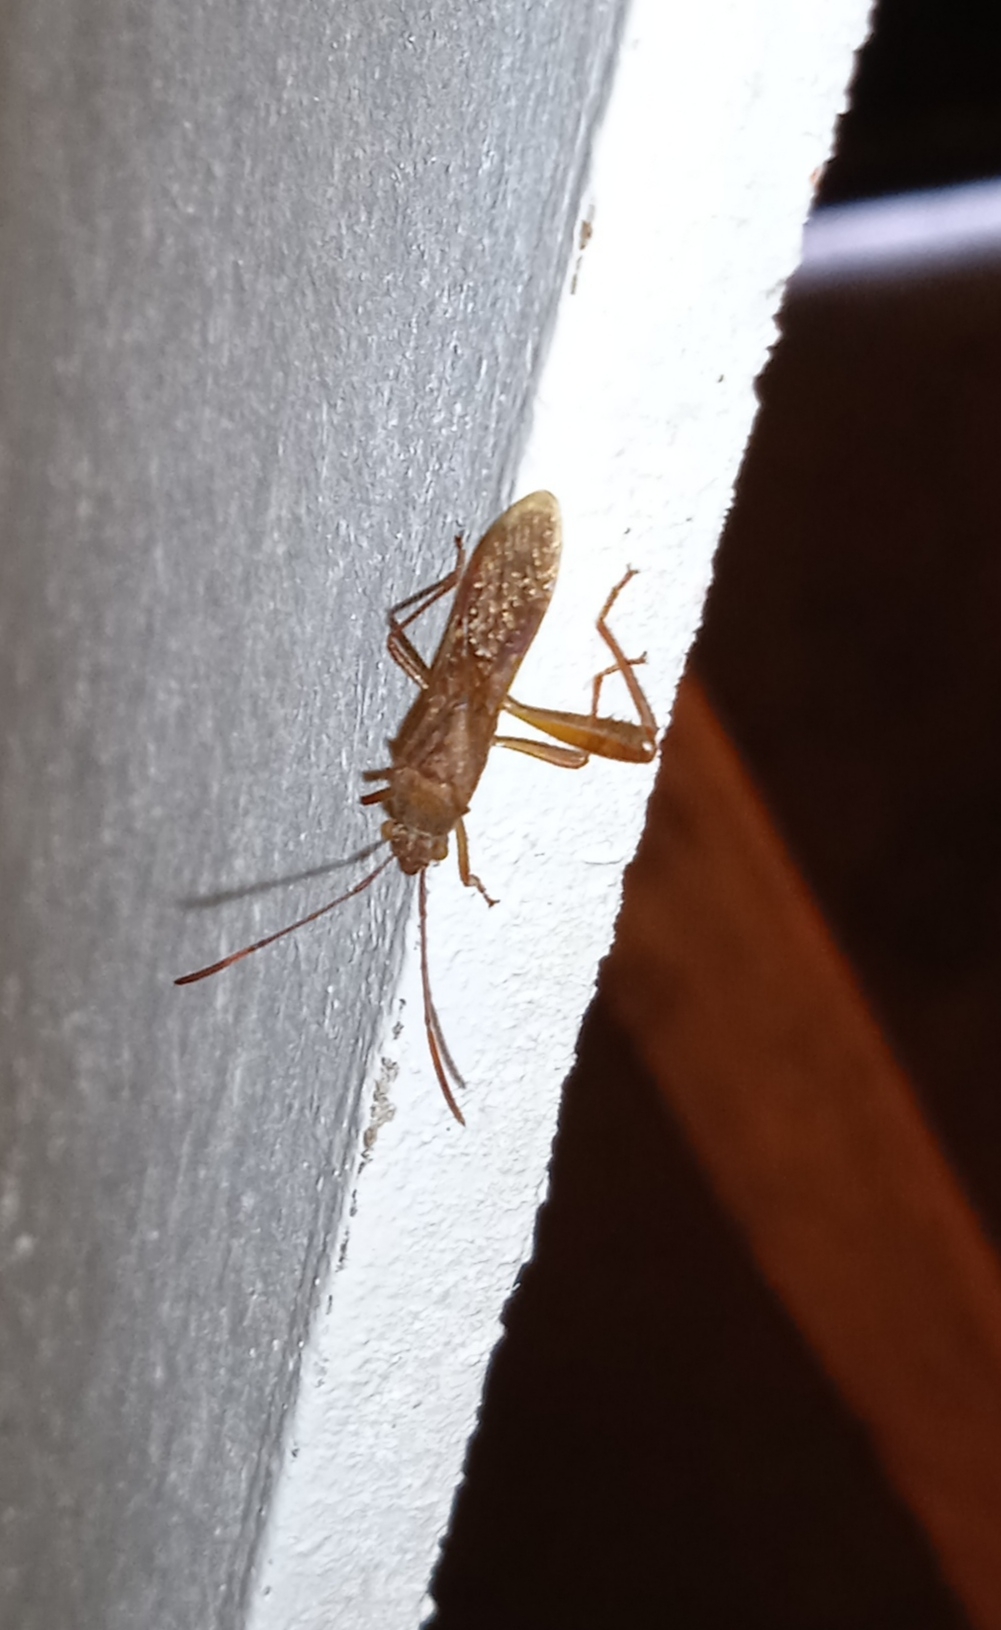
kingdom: Animalia
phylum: Arthropoda
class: Insecta
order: Hemiptera
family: Alydidae
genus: Megalotomus
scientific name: Megalotomus quinquespinosus
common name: Lupine bug
